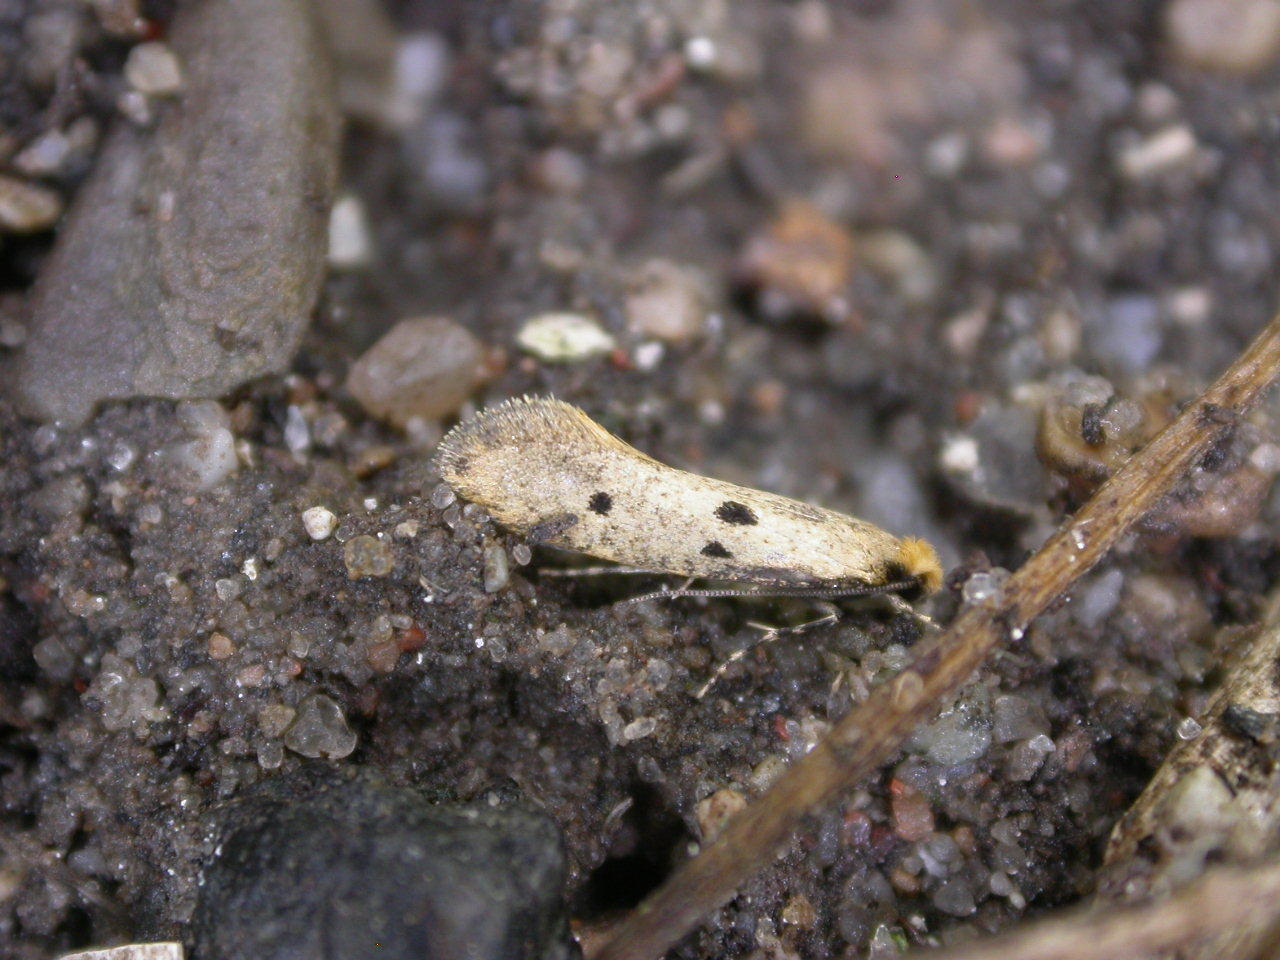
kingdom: Animalia
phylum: Arthropoda
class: Insecta
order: Lepidoptera
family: Tineidae
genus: Tinea
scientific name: Tinea trinotella
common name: Bird's-nest moth
